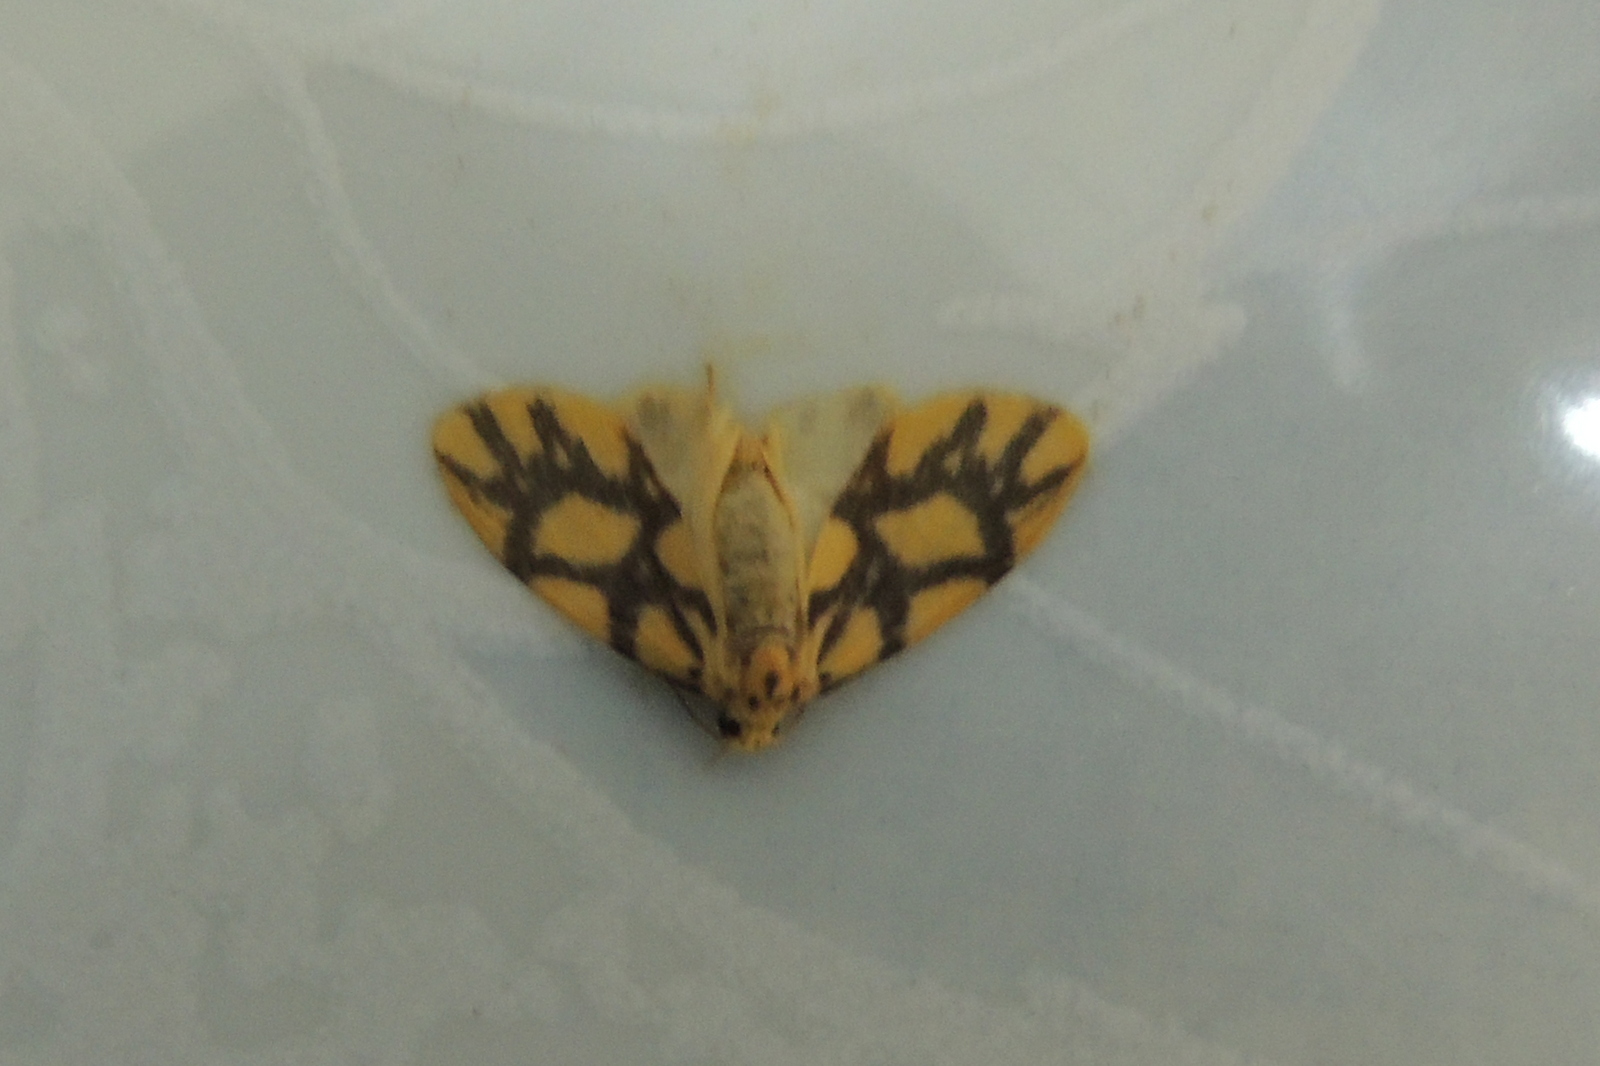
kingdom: Animalia
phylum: Arthropoda
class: Insecta
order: Lepidoptera
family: Erebidae
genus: Asura
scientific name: Asura toxodes
